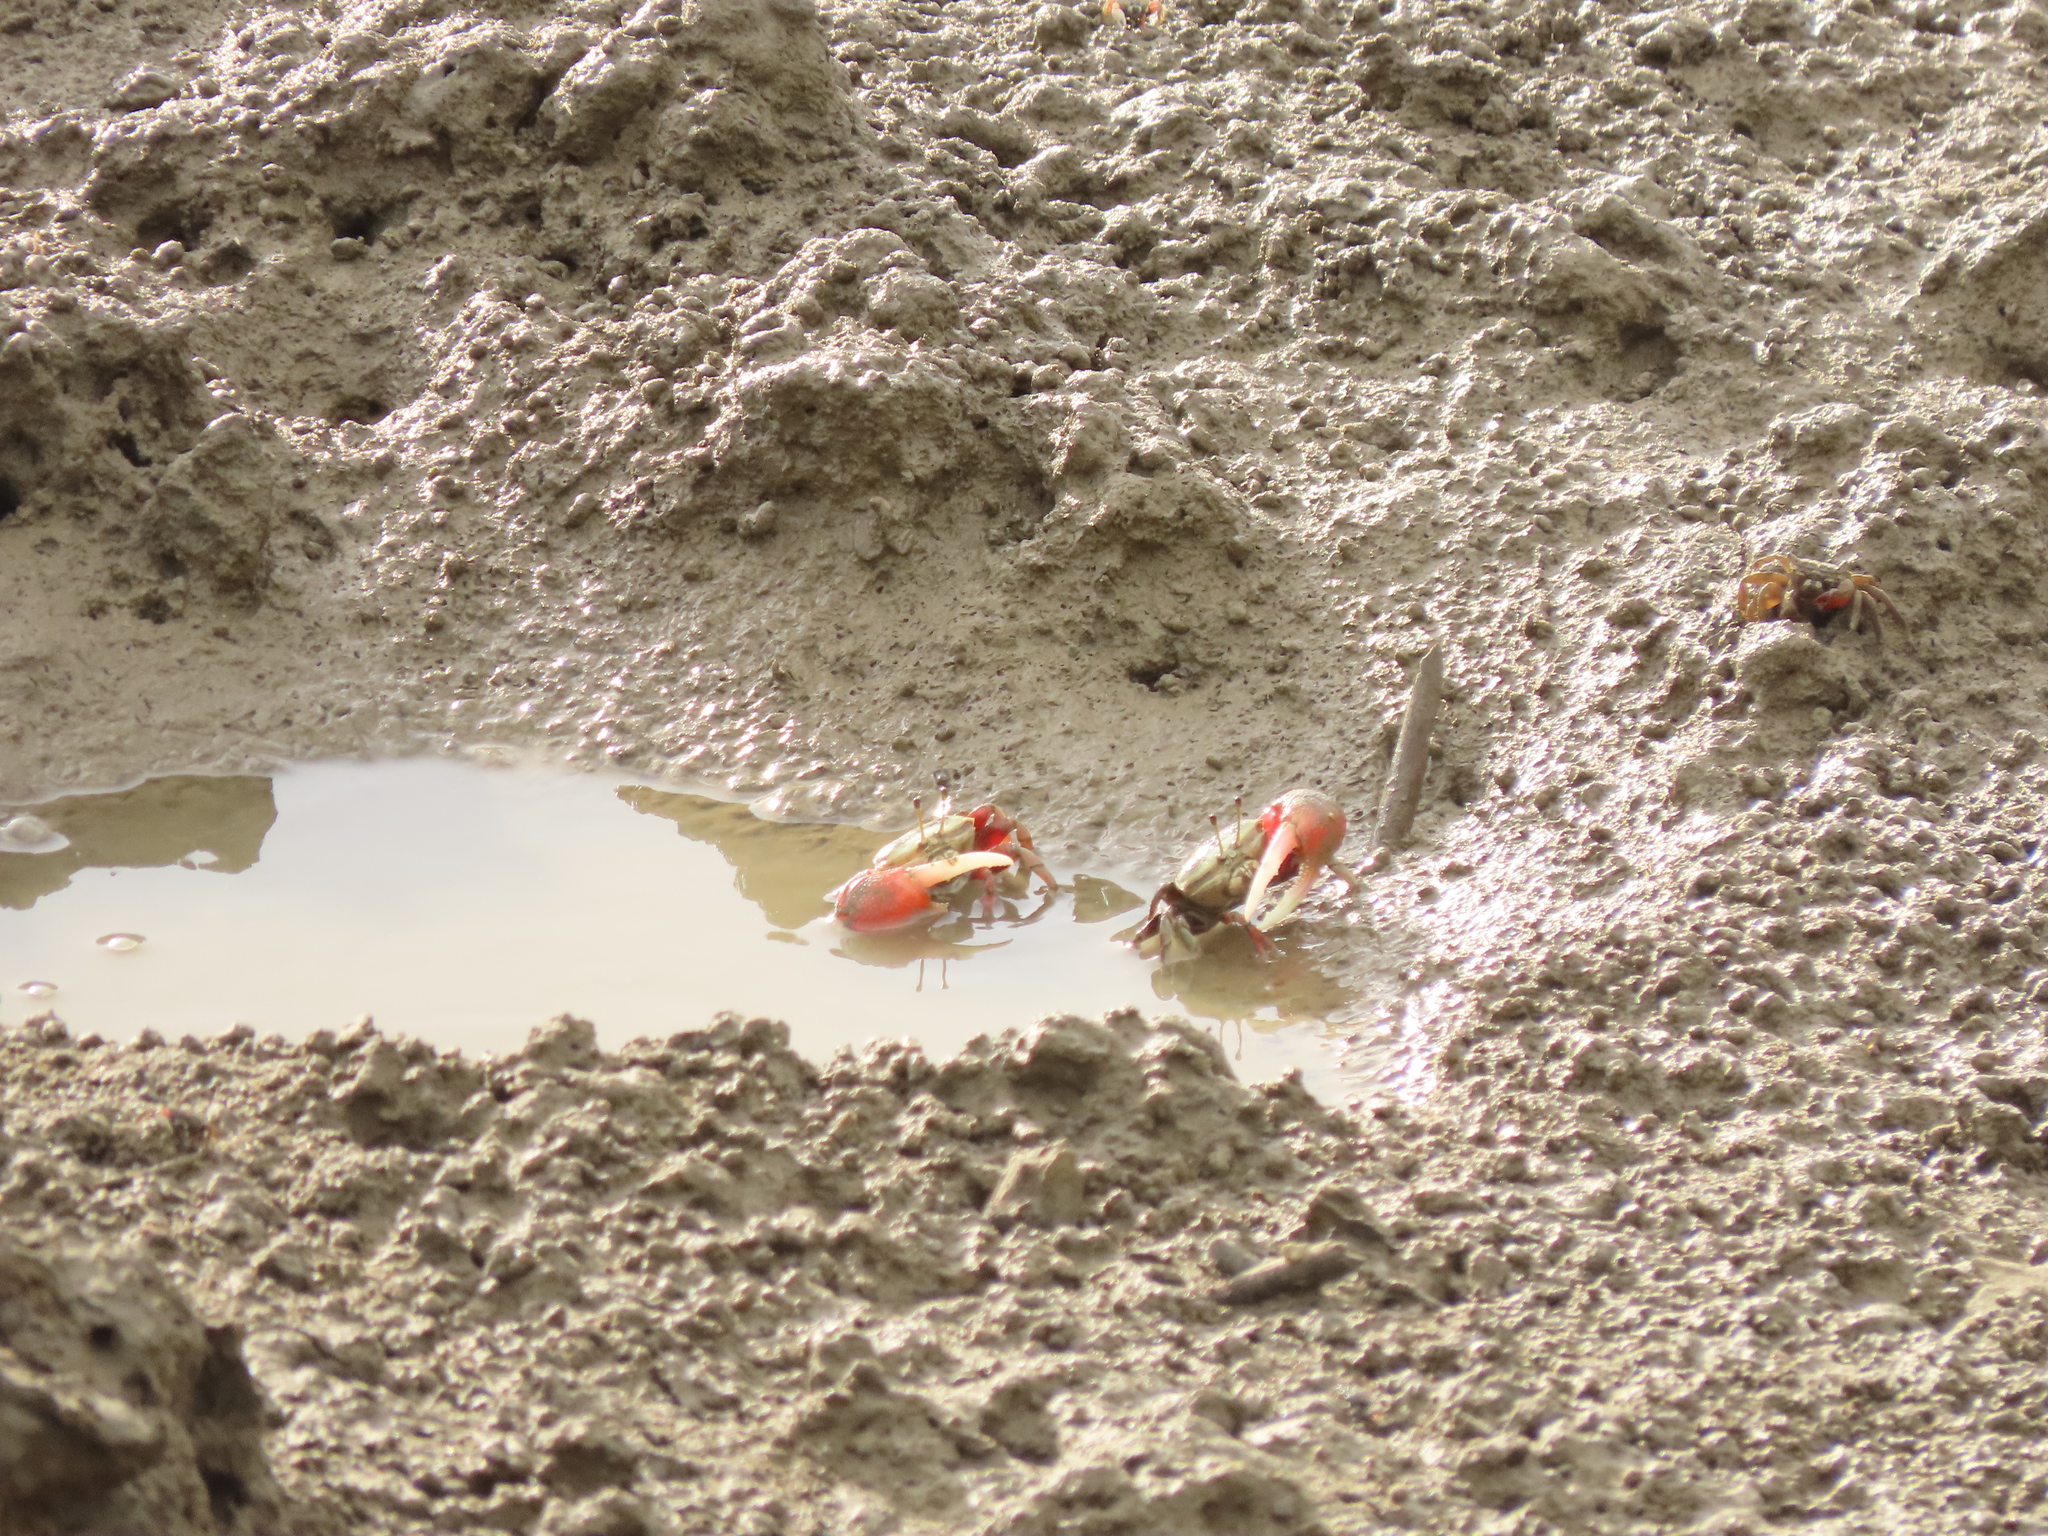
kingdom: Animalia
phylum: Arthropoda
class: Malacostraca
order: Decapoda
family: Ocypodidae
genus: Tubuca
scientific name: Tubuca arcuata
